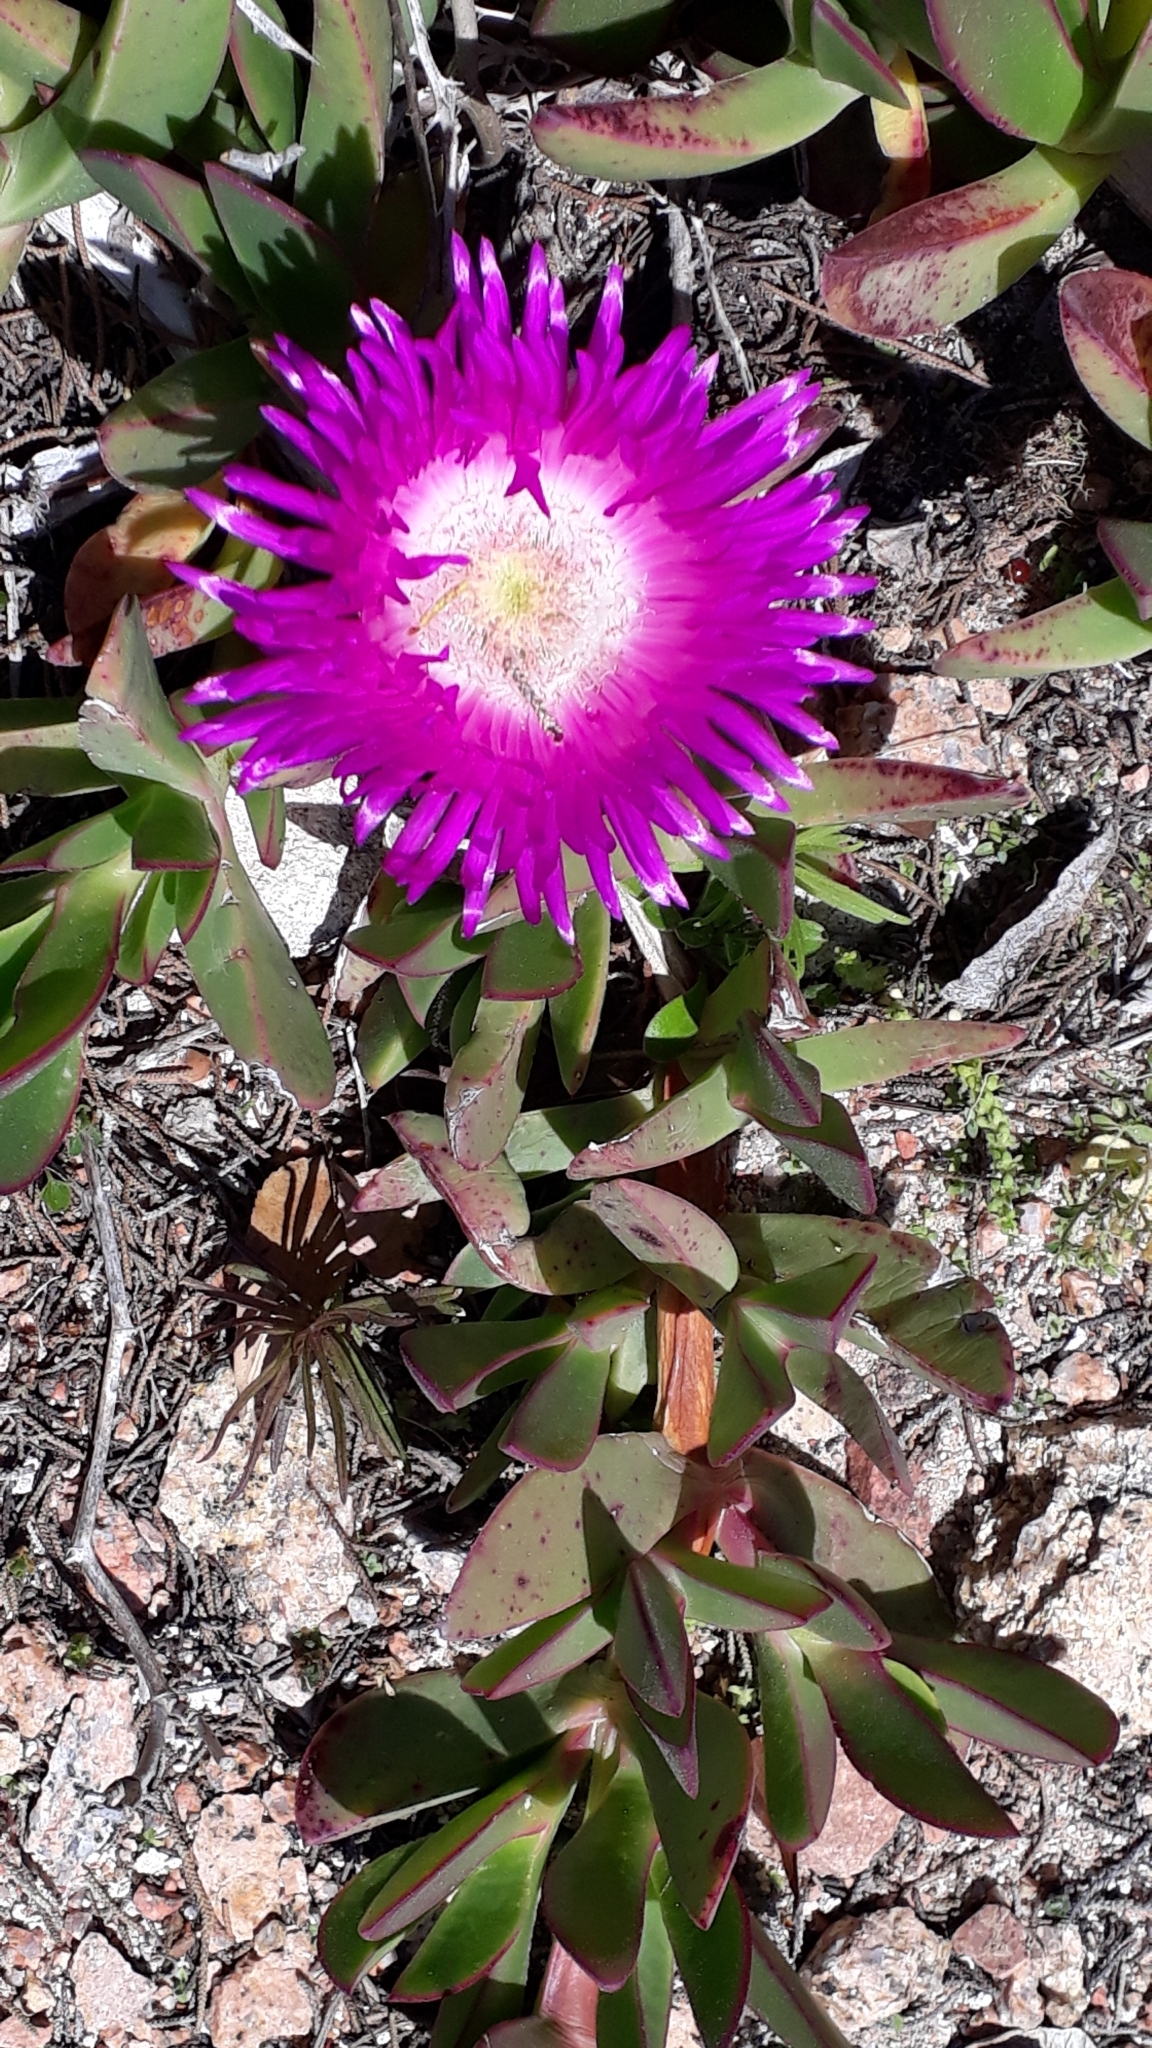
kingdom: Plantae
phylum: Tracheophyta
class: Magnoliopsida
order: Caryophyllales
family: Aizoaceae
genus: Carpobrotus
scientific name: Carpobrotus acinaciformis
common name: Sally-my-handsome
